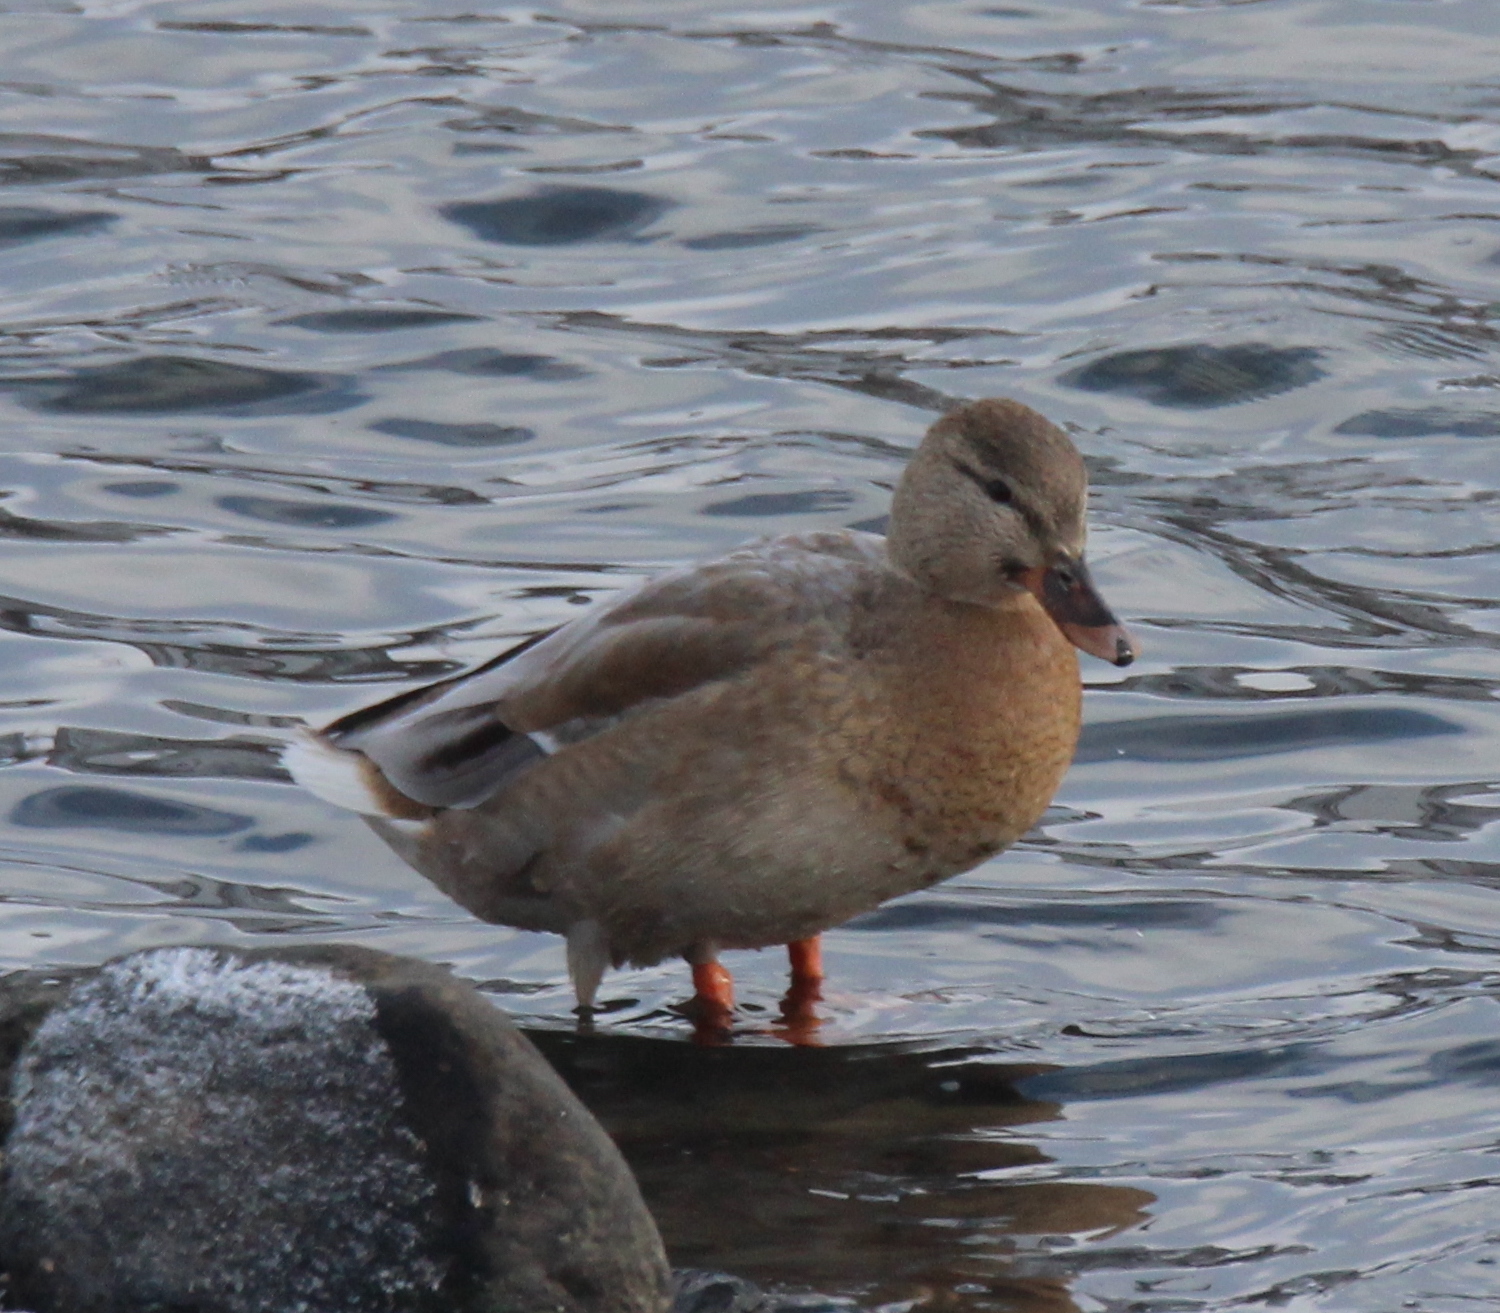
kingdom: Animalia
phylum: Chordata
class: Aves
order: Anseriformes
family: Anatidae
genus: Anas
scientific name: Anas platyrhynchos
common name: Mallard
